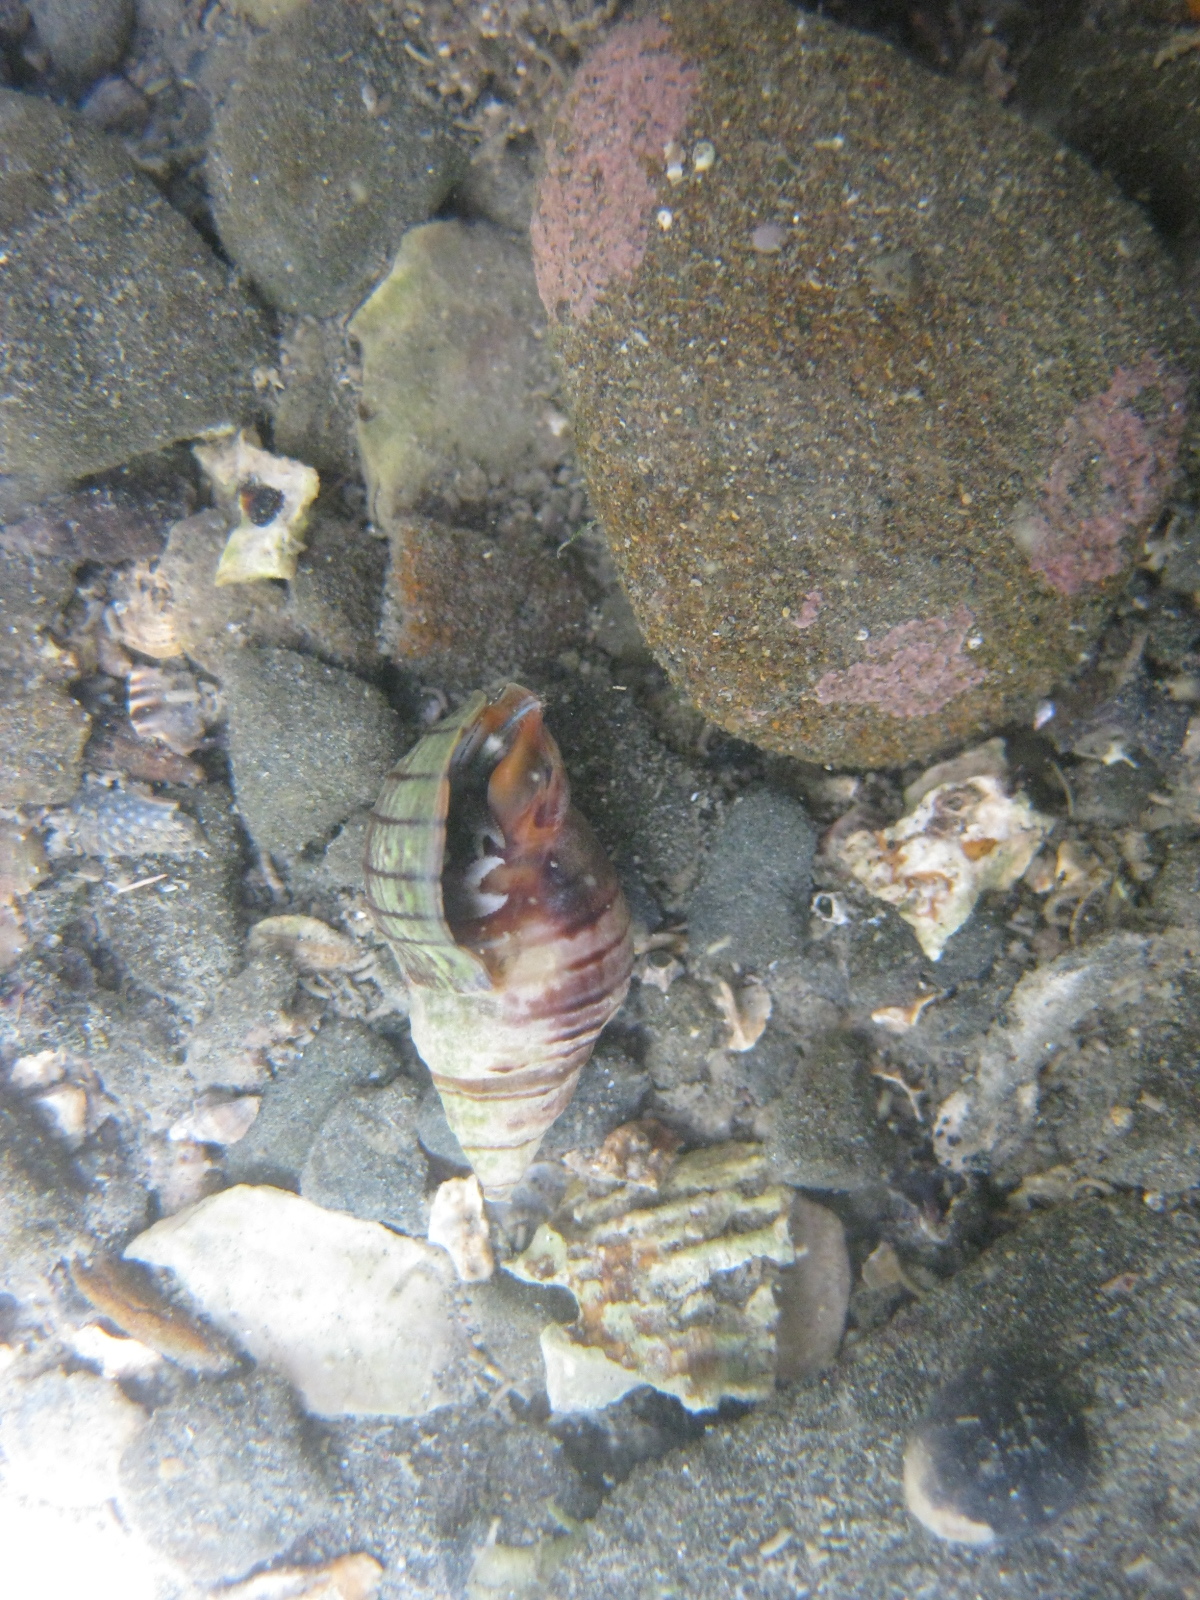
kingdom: Animalia
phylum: Mollusca
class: Gastropoda
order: Neogastropoda
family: Cominellidae
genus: Cominella
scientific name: Cominella virgata
